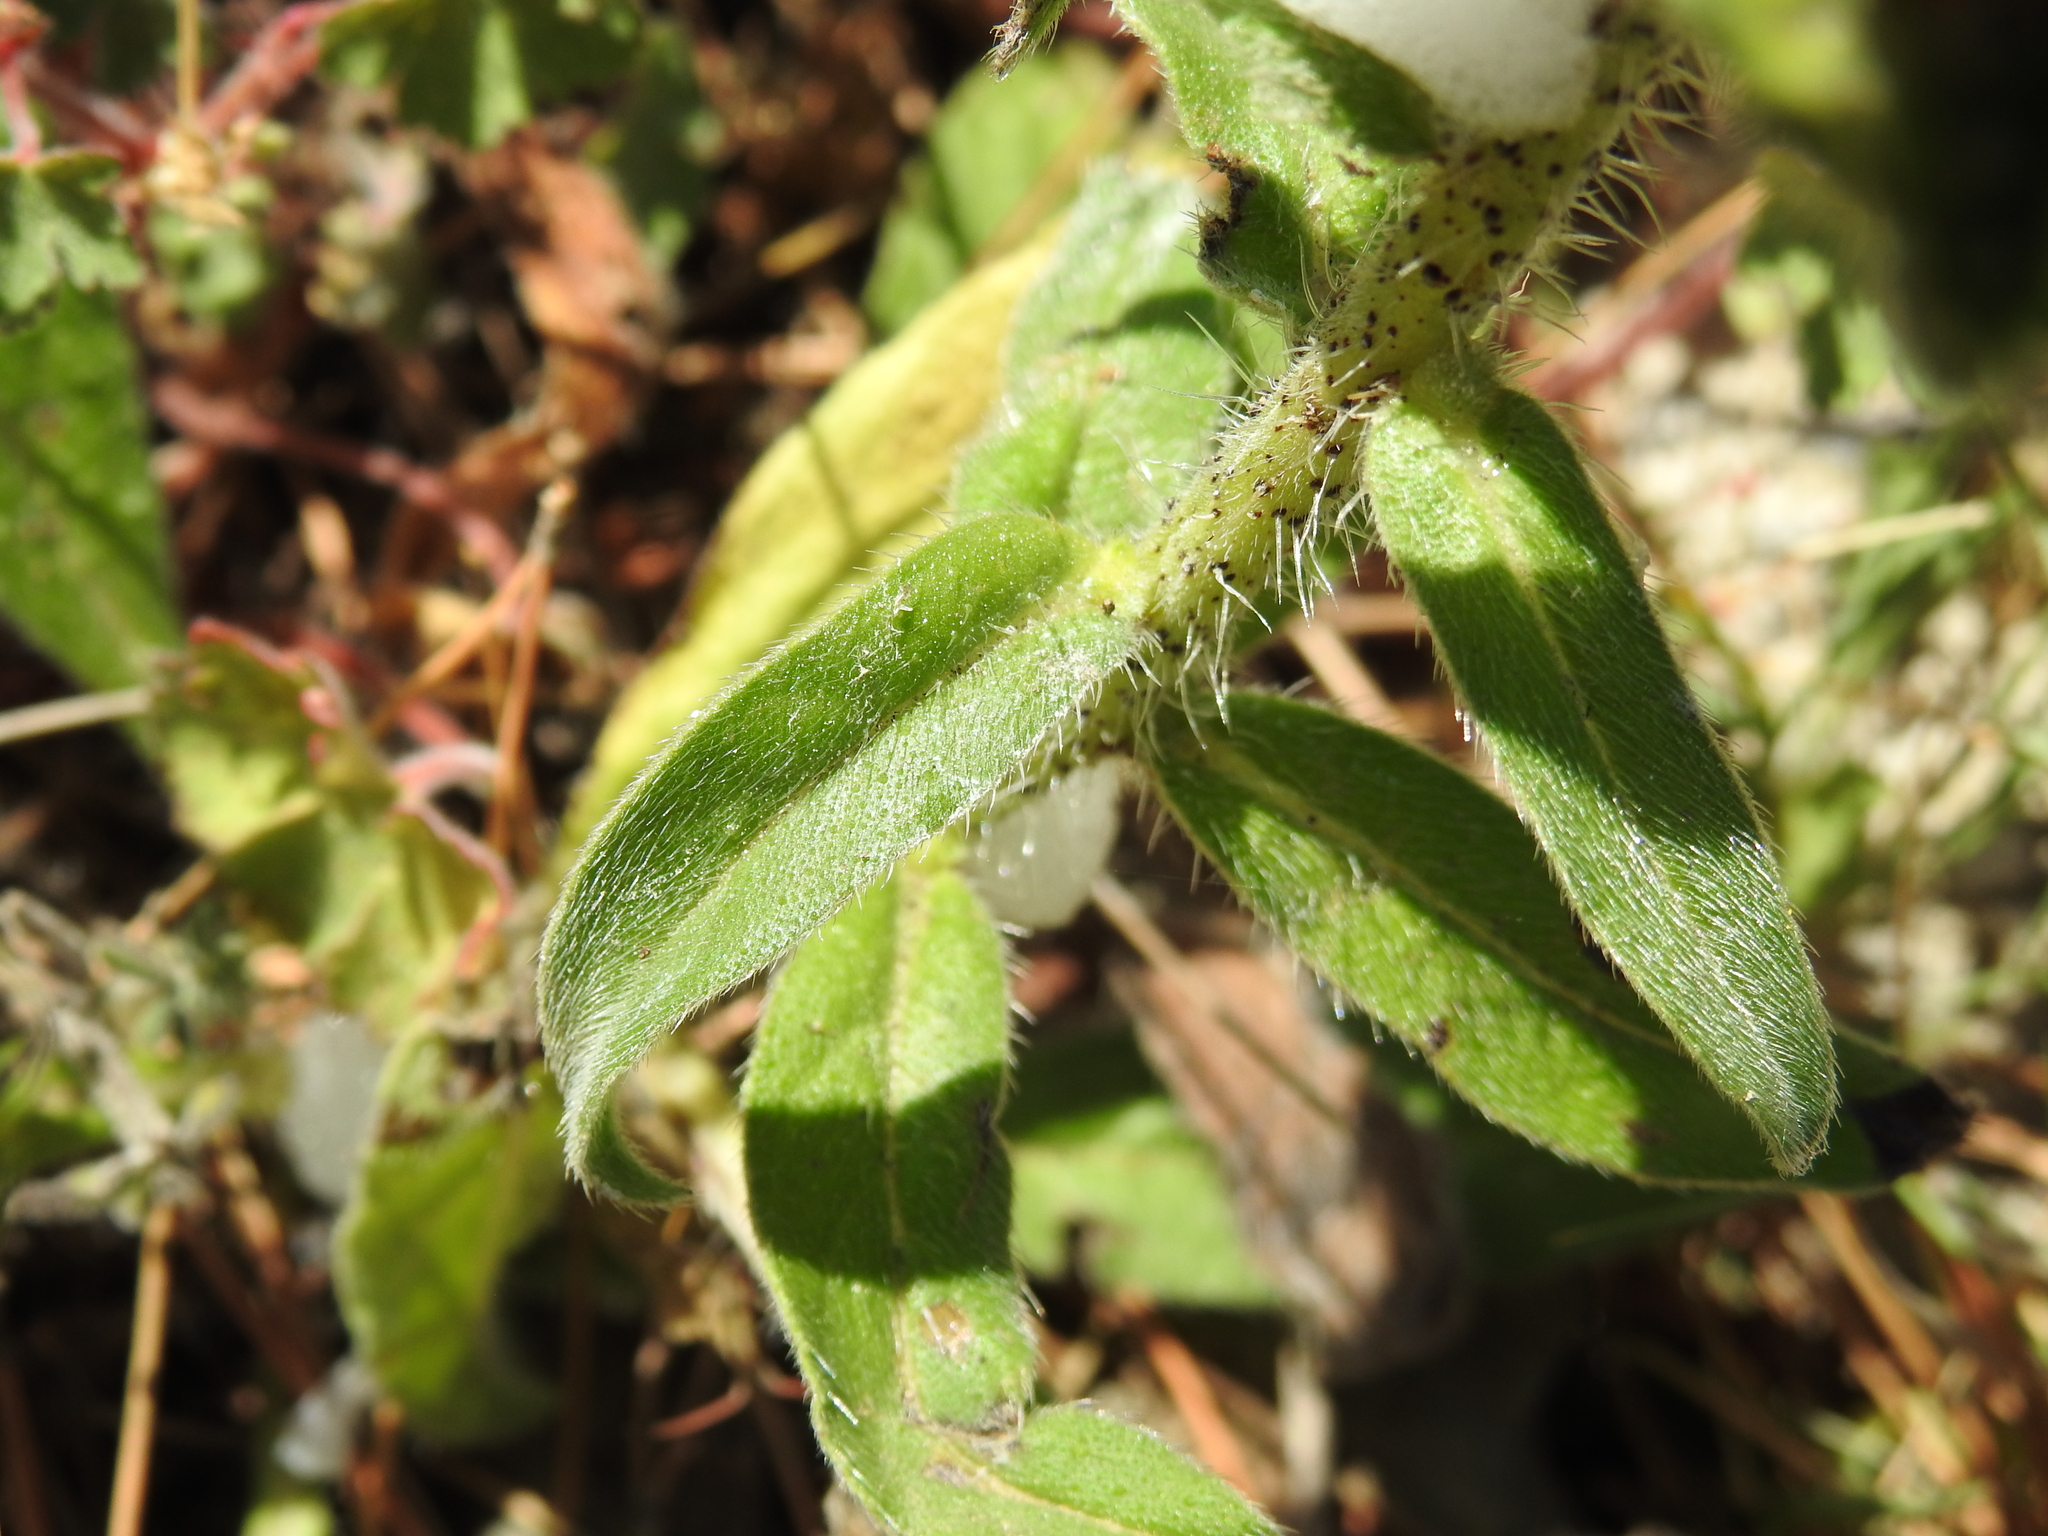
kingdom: Plantae
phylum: Tracheophyta
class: Magnoliopsida
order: Boraginales
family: Boraginaceae
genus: Echium
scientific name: Echium creticum
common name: Cretan viper's bugloss
